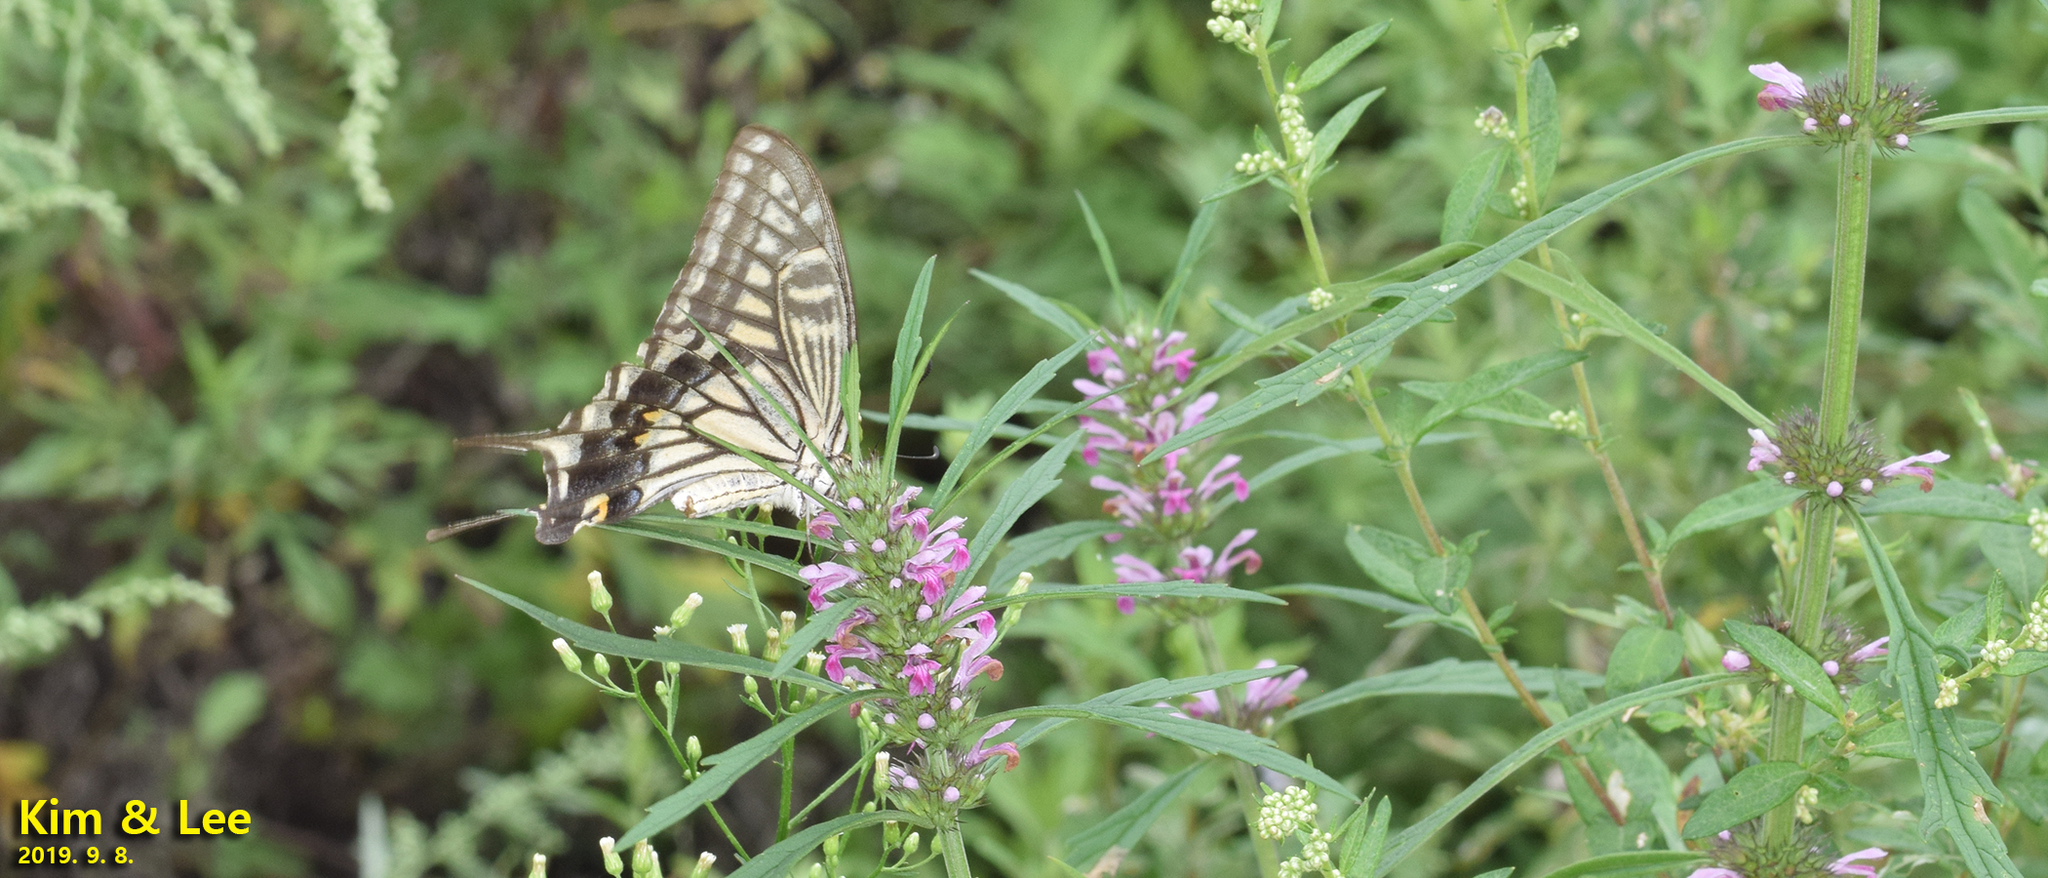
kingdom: Animalia
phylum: Arthropoda
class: Insecta
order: Lepidoptera
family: Papilionidae
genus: Papilio
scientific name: Papilio xuthus
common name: Asian swallowtail
